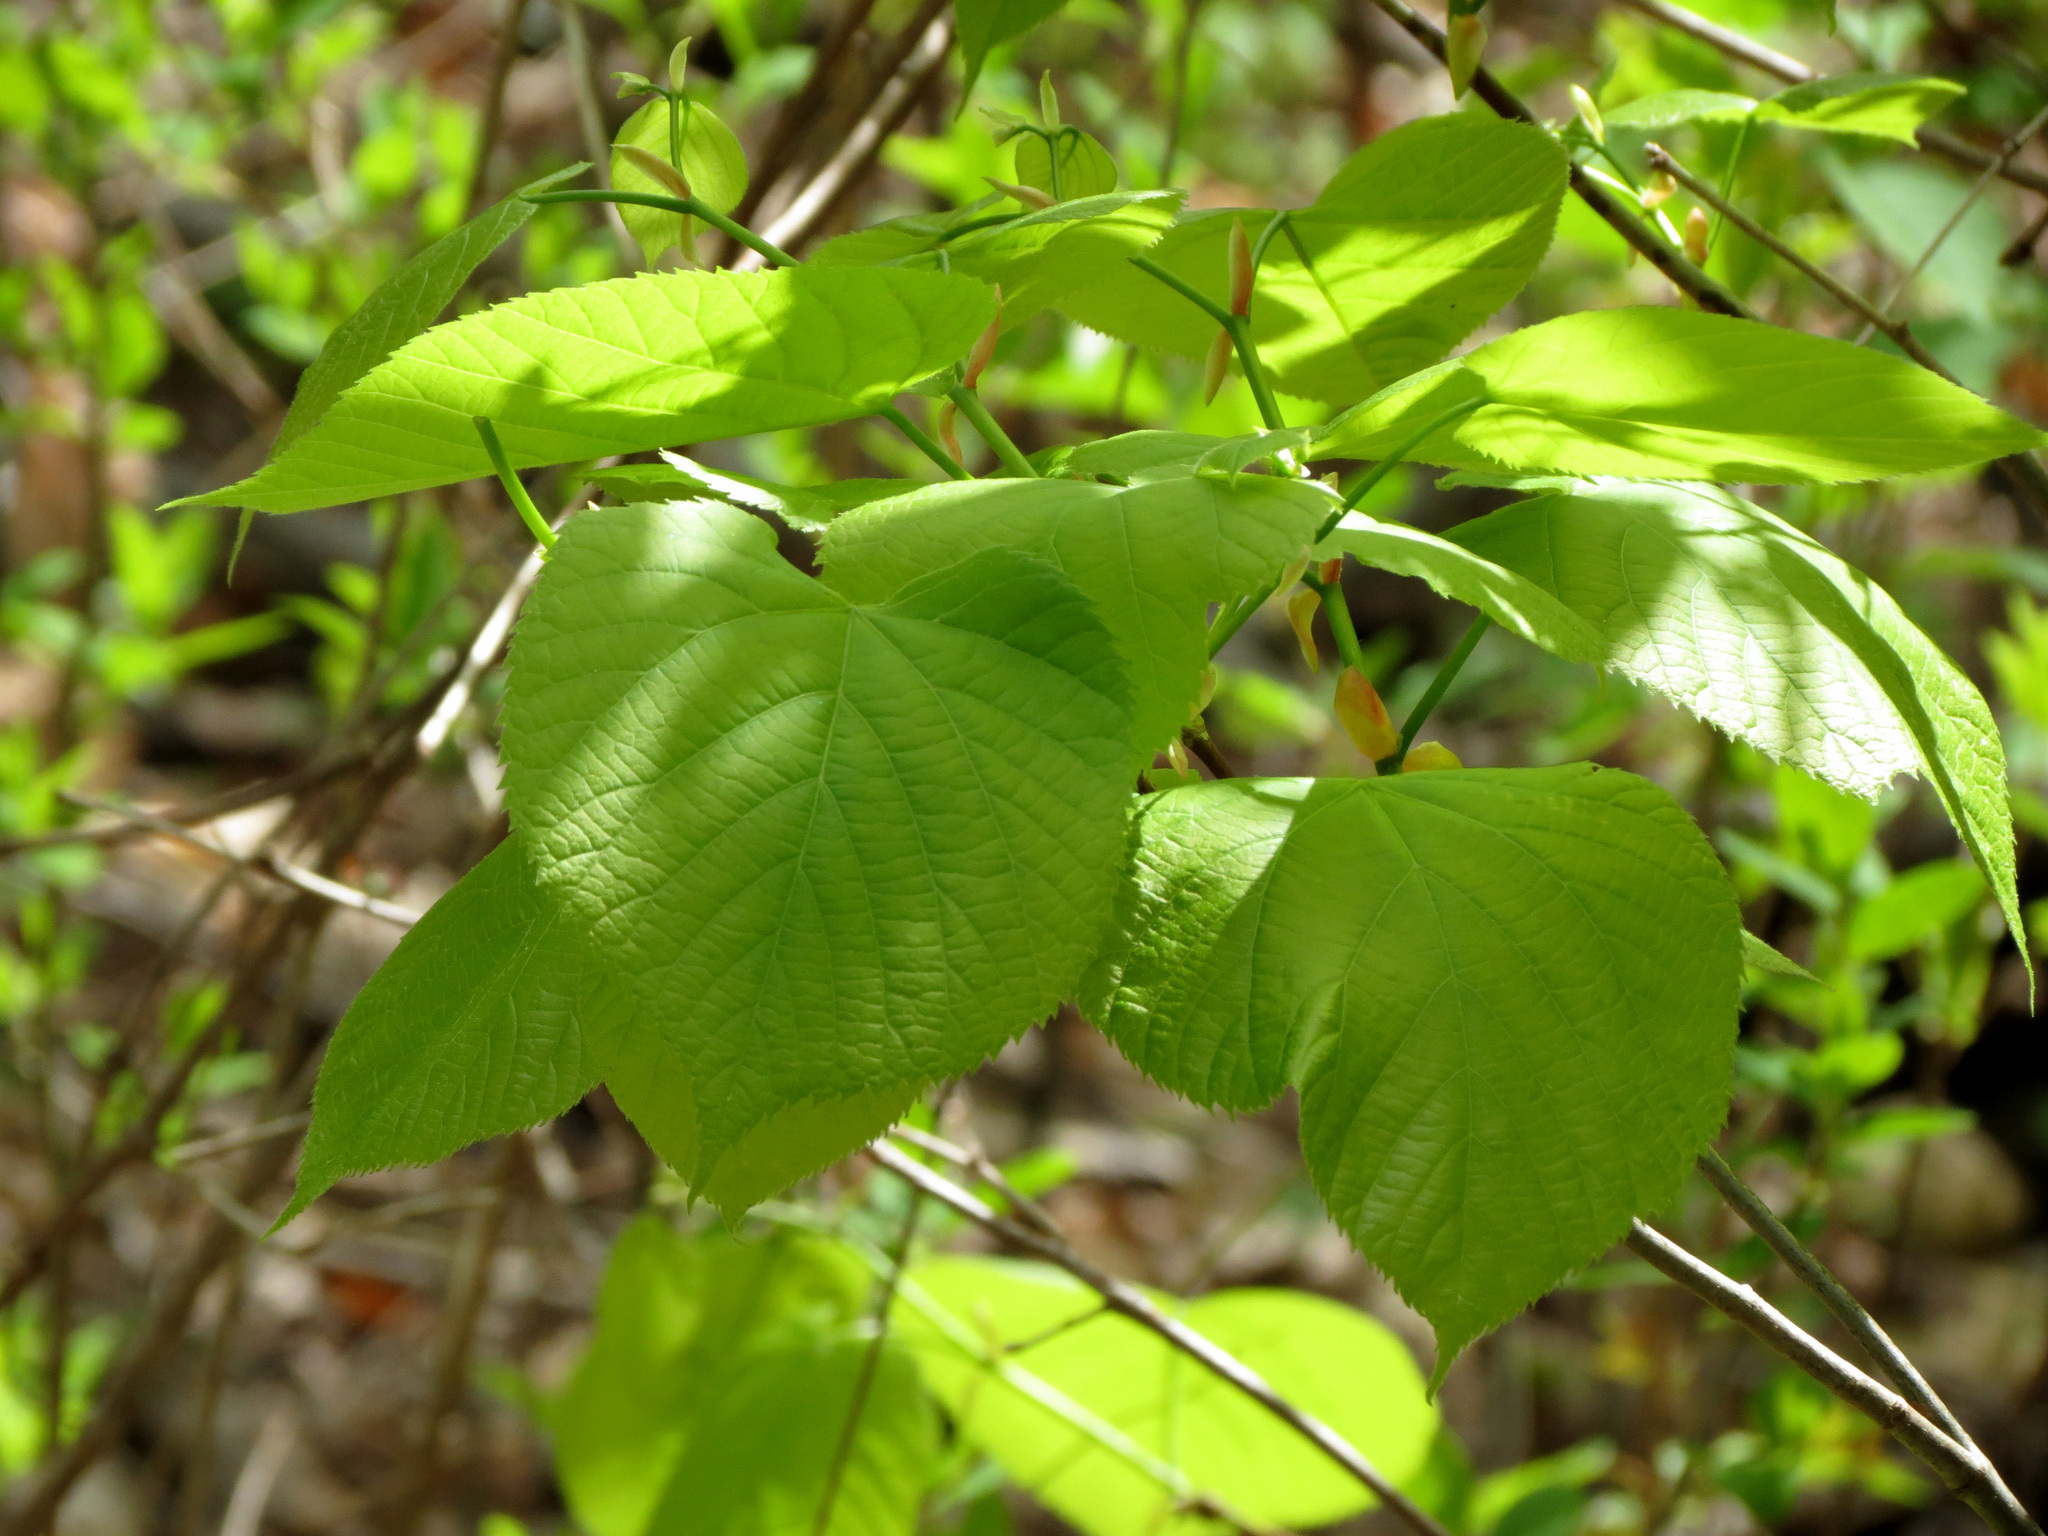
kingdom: Plantae
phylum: Tracheophyta
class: Magnoliopsida
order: Malvales
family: Malvaceae
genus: Tilia
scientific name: Tilia americana
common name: Basswood
